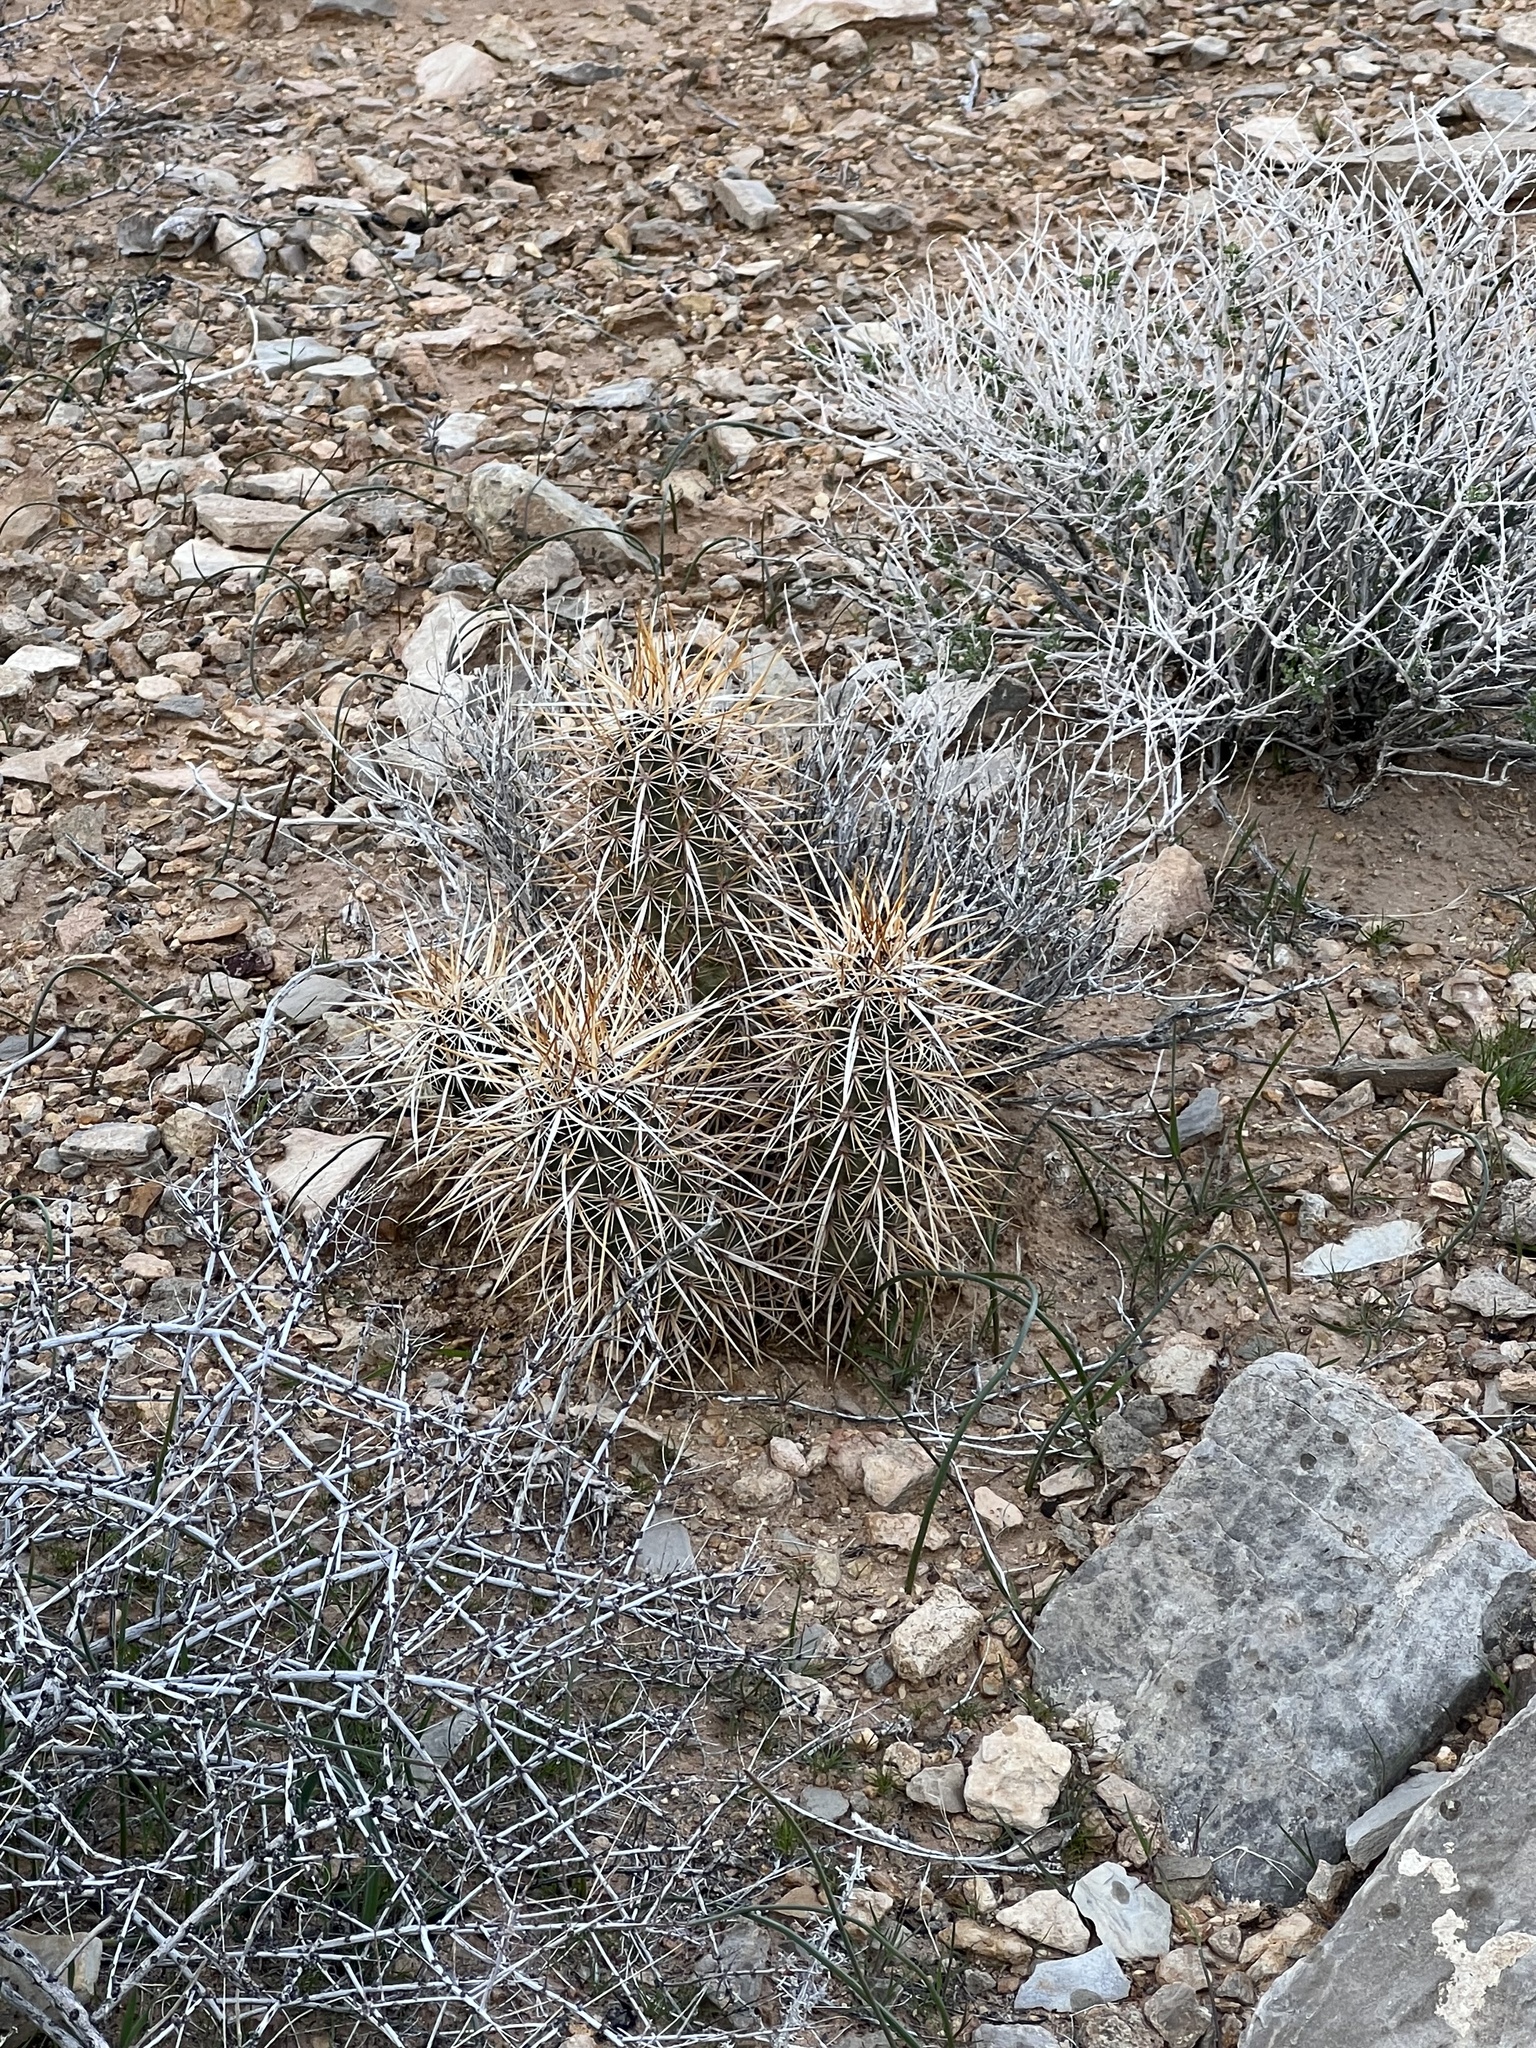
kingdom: Plantae
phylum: Tracheophyta
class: Magnoliopsida
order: Caryophyllales
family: Cactaceae
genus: Echinocereus
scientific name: Echinocereus engelmannii
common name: Engelmann's hedgehog cactus
